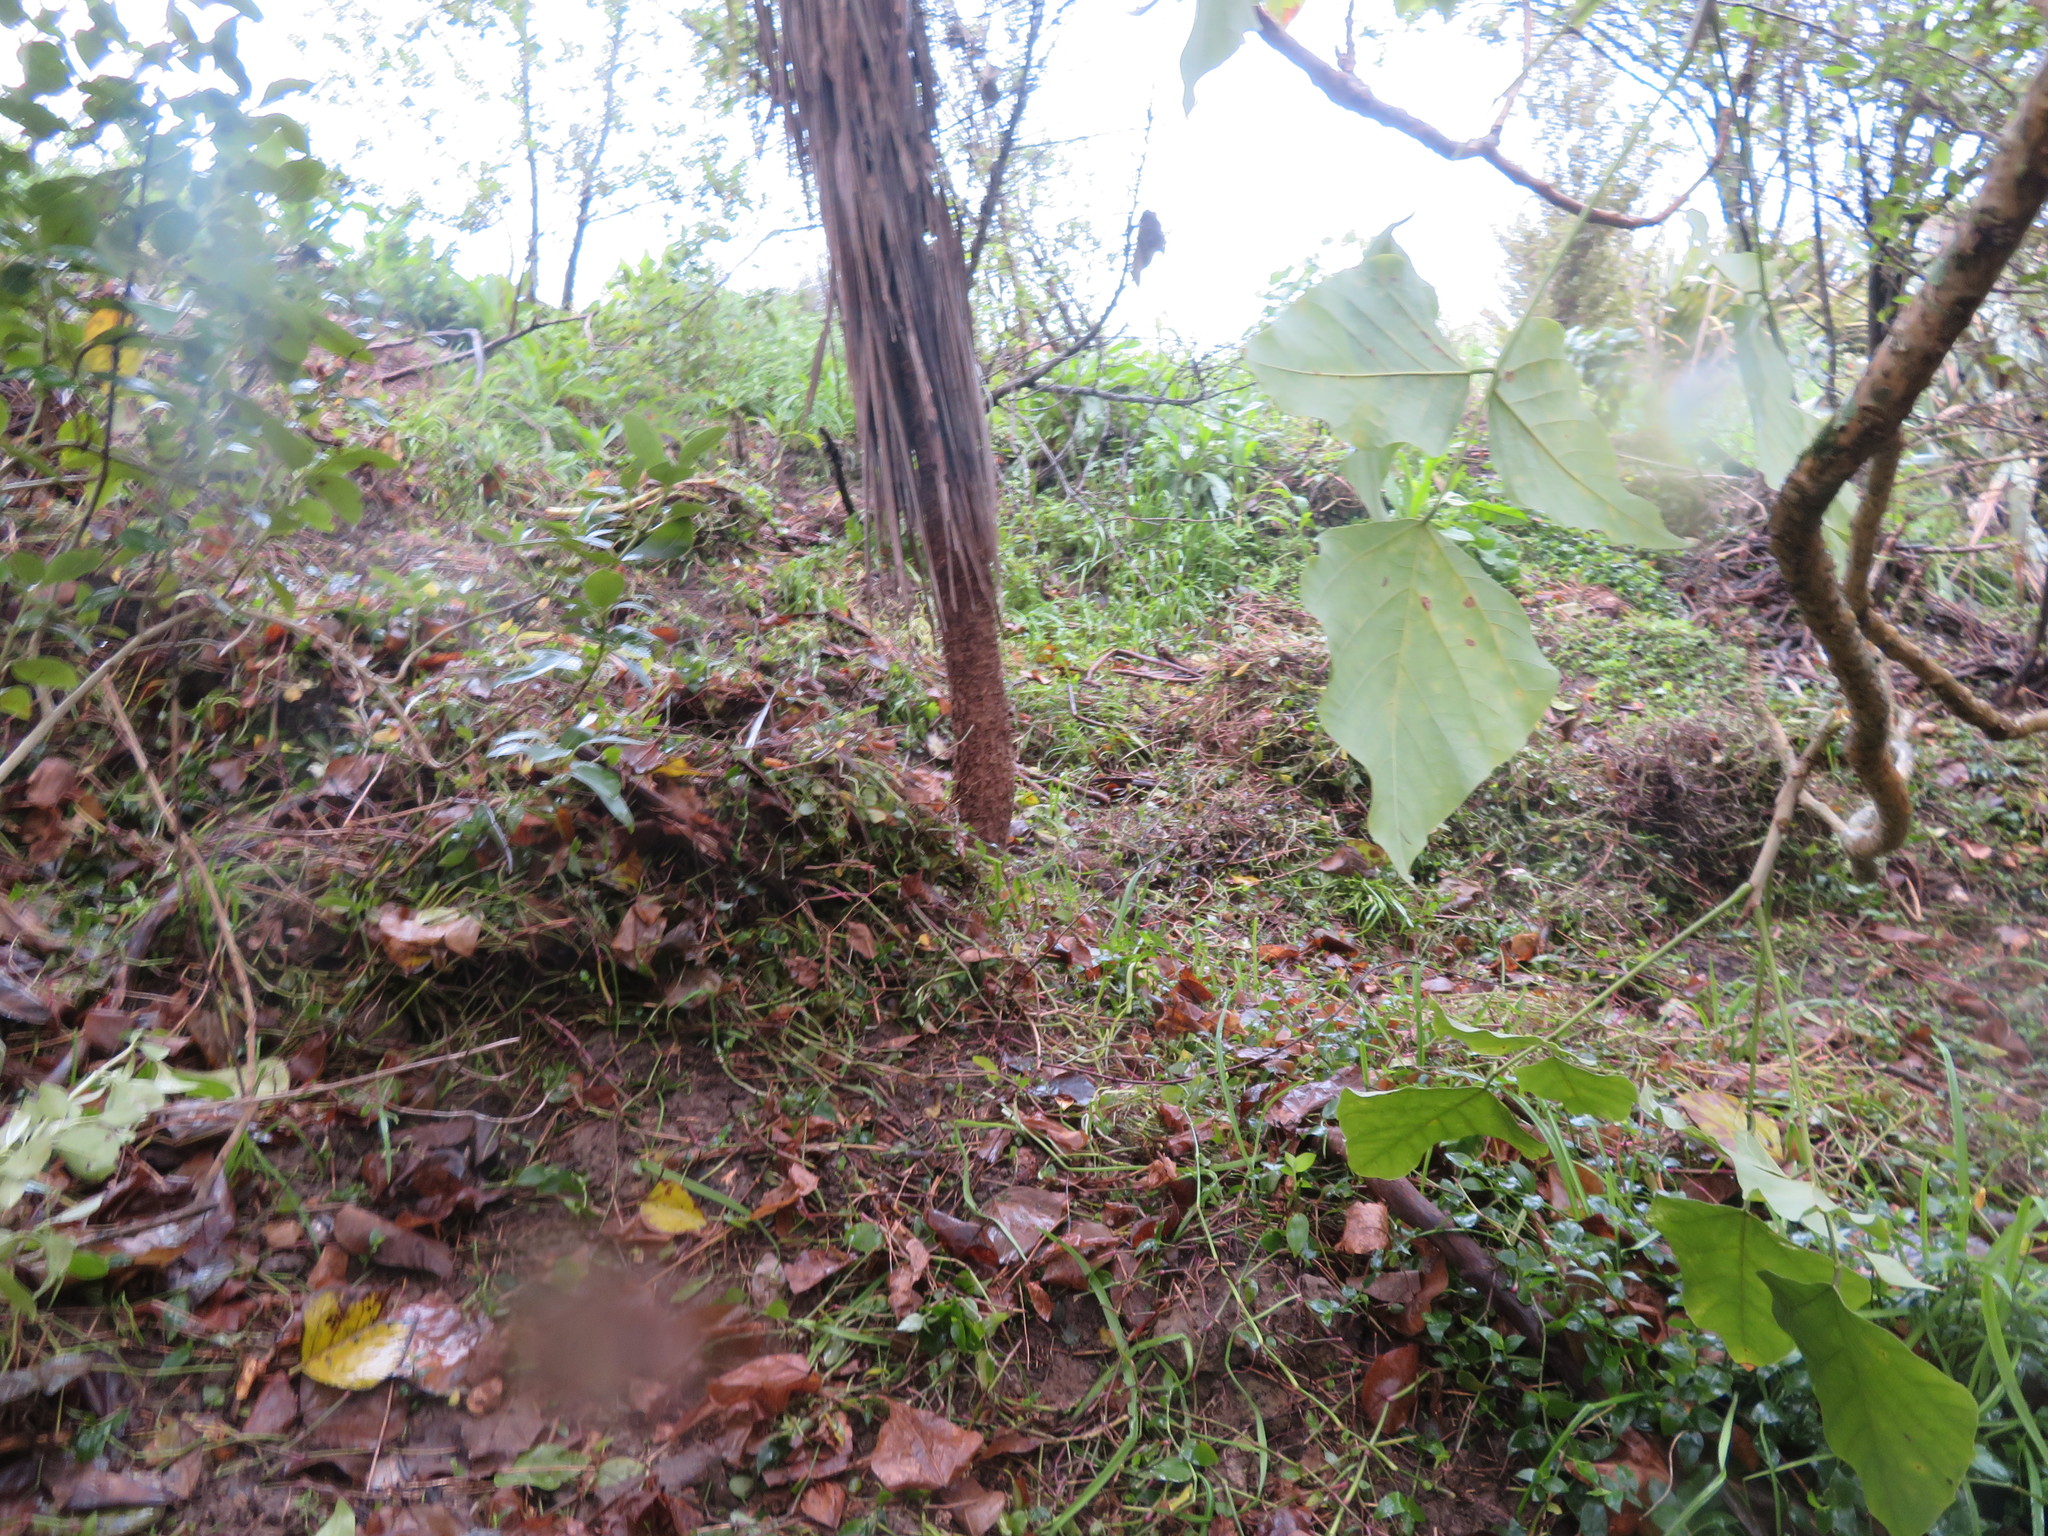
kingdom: Plantae
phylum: Tracheophyta
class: Liliopsida
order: Commelinales
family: Commelinaceae
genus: Tradescantia
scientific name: Tradescantia fluminensis
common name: Wandering-jew
